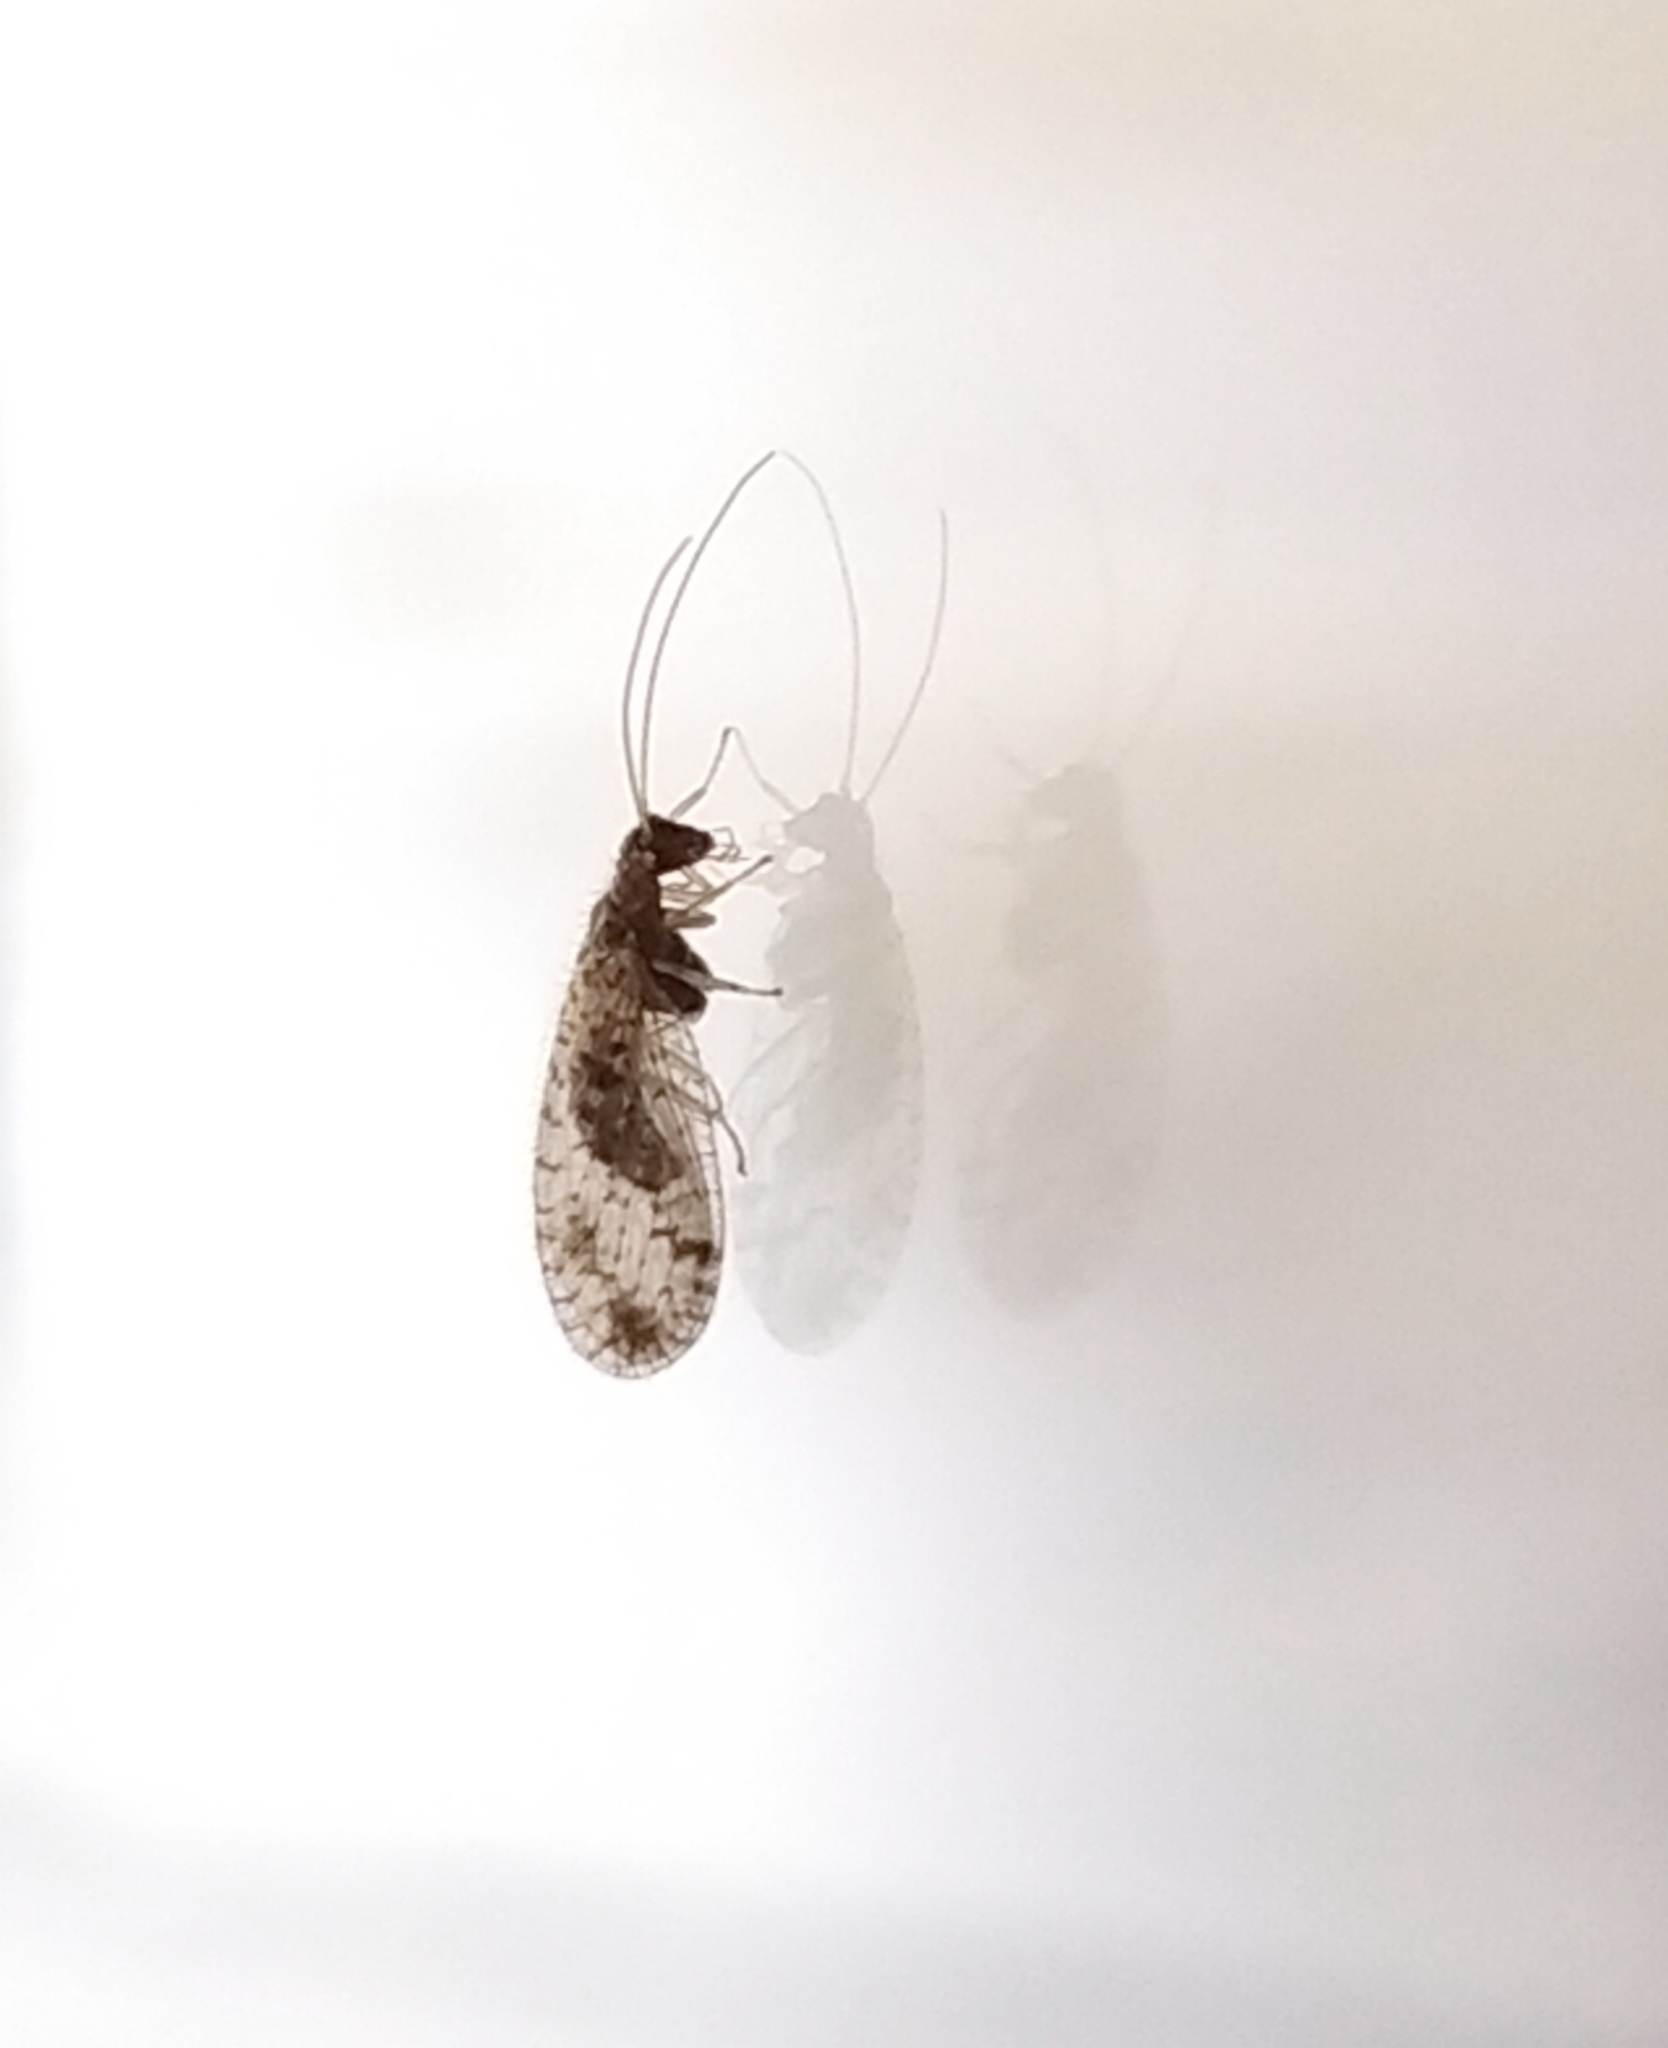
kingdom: Animalia
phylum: Arthropoda
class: Insecta
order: Neuroptera
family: Hemerobiidae
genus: Micromus
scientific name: Micromus variegatus
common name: Brown lacewing
